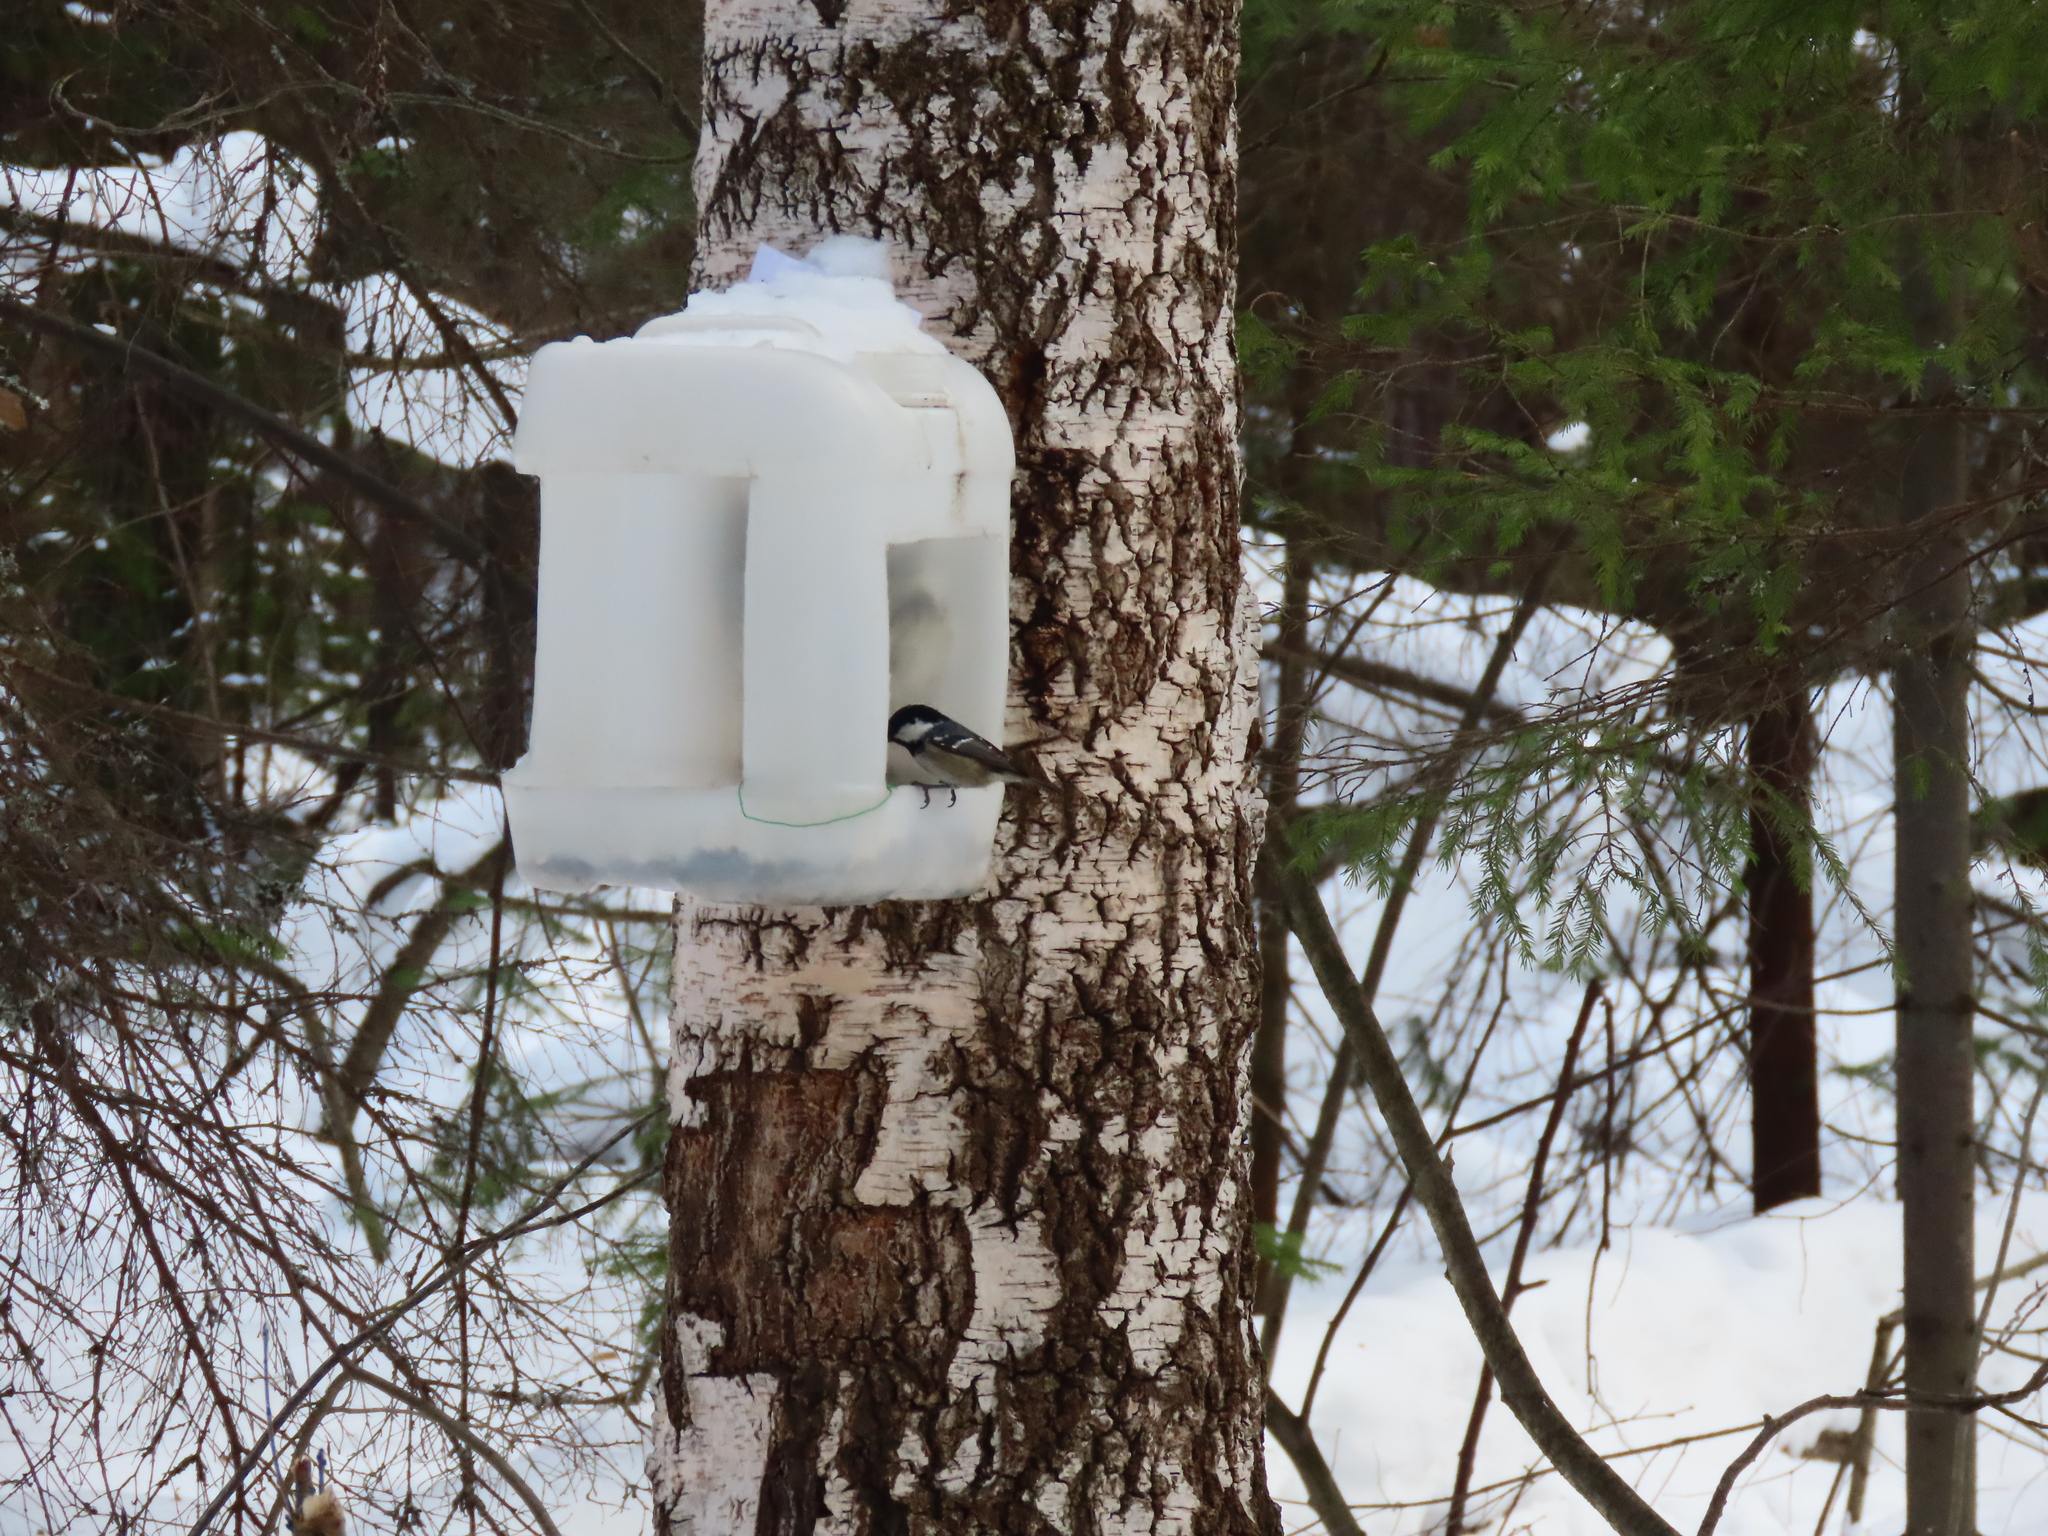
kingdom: Animalia
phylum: Chordata
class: Aves
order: Passeriformes
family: Paridae
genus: Periparus
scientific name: Periparus ater
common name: Coal tit
